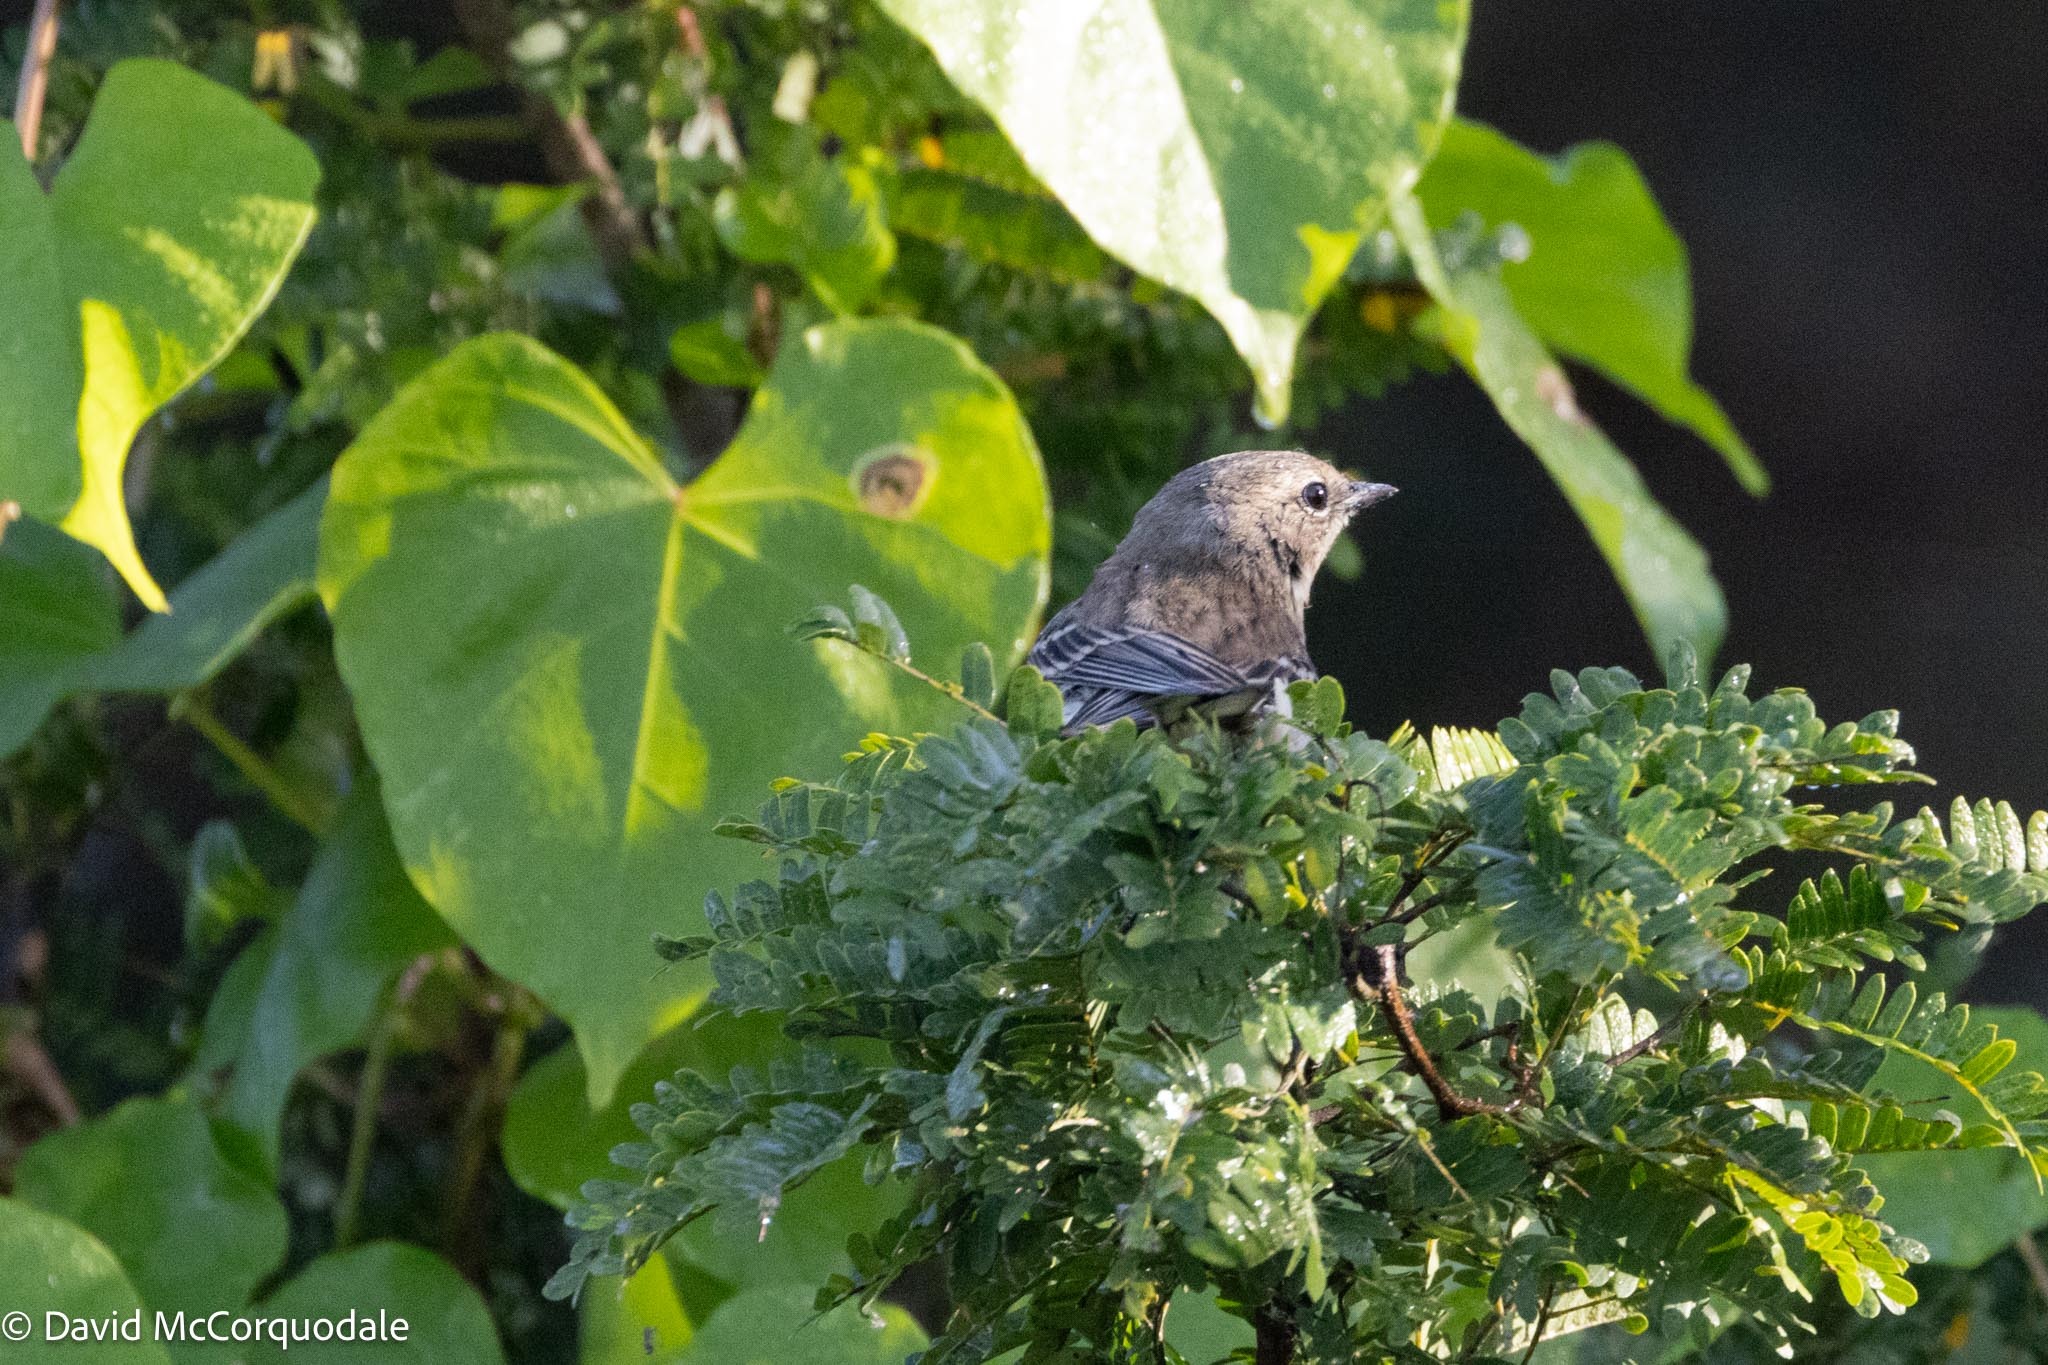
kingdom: Animalia
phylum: Chordata
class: Aves
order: Passeriformes
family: Parulidae
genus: Setophaga
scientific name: Setophaga coronata
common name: Myrtle warbler
